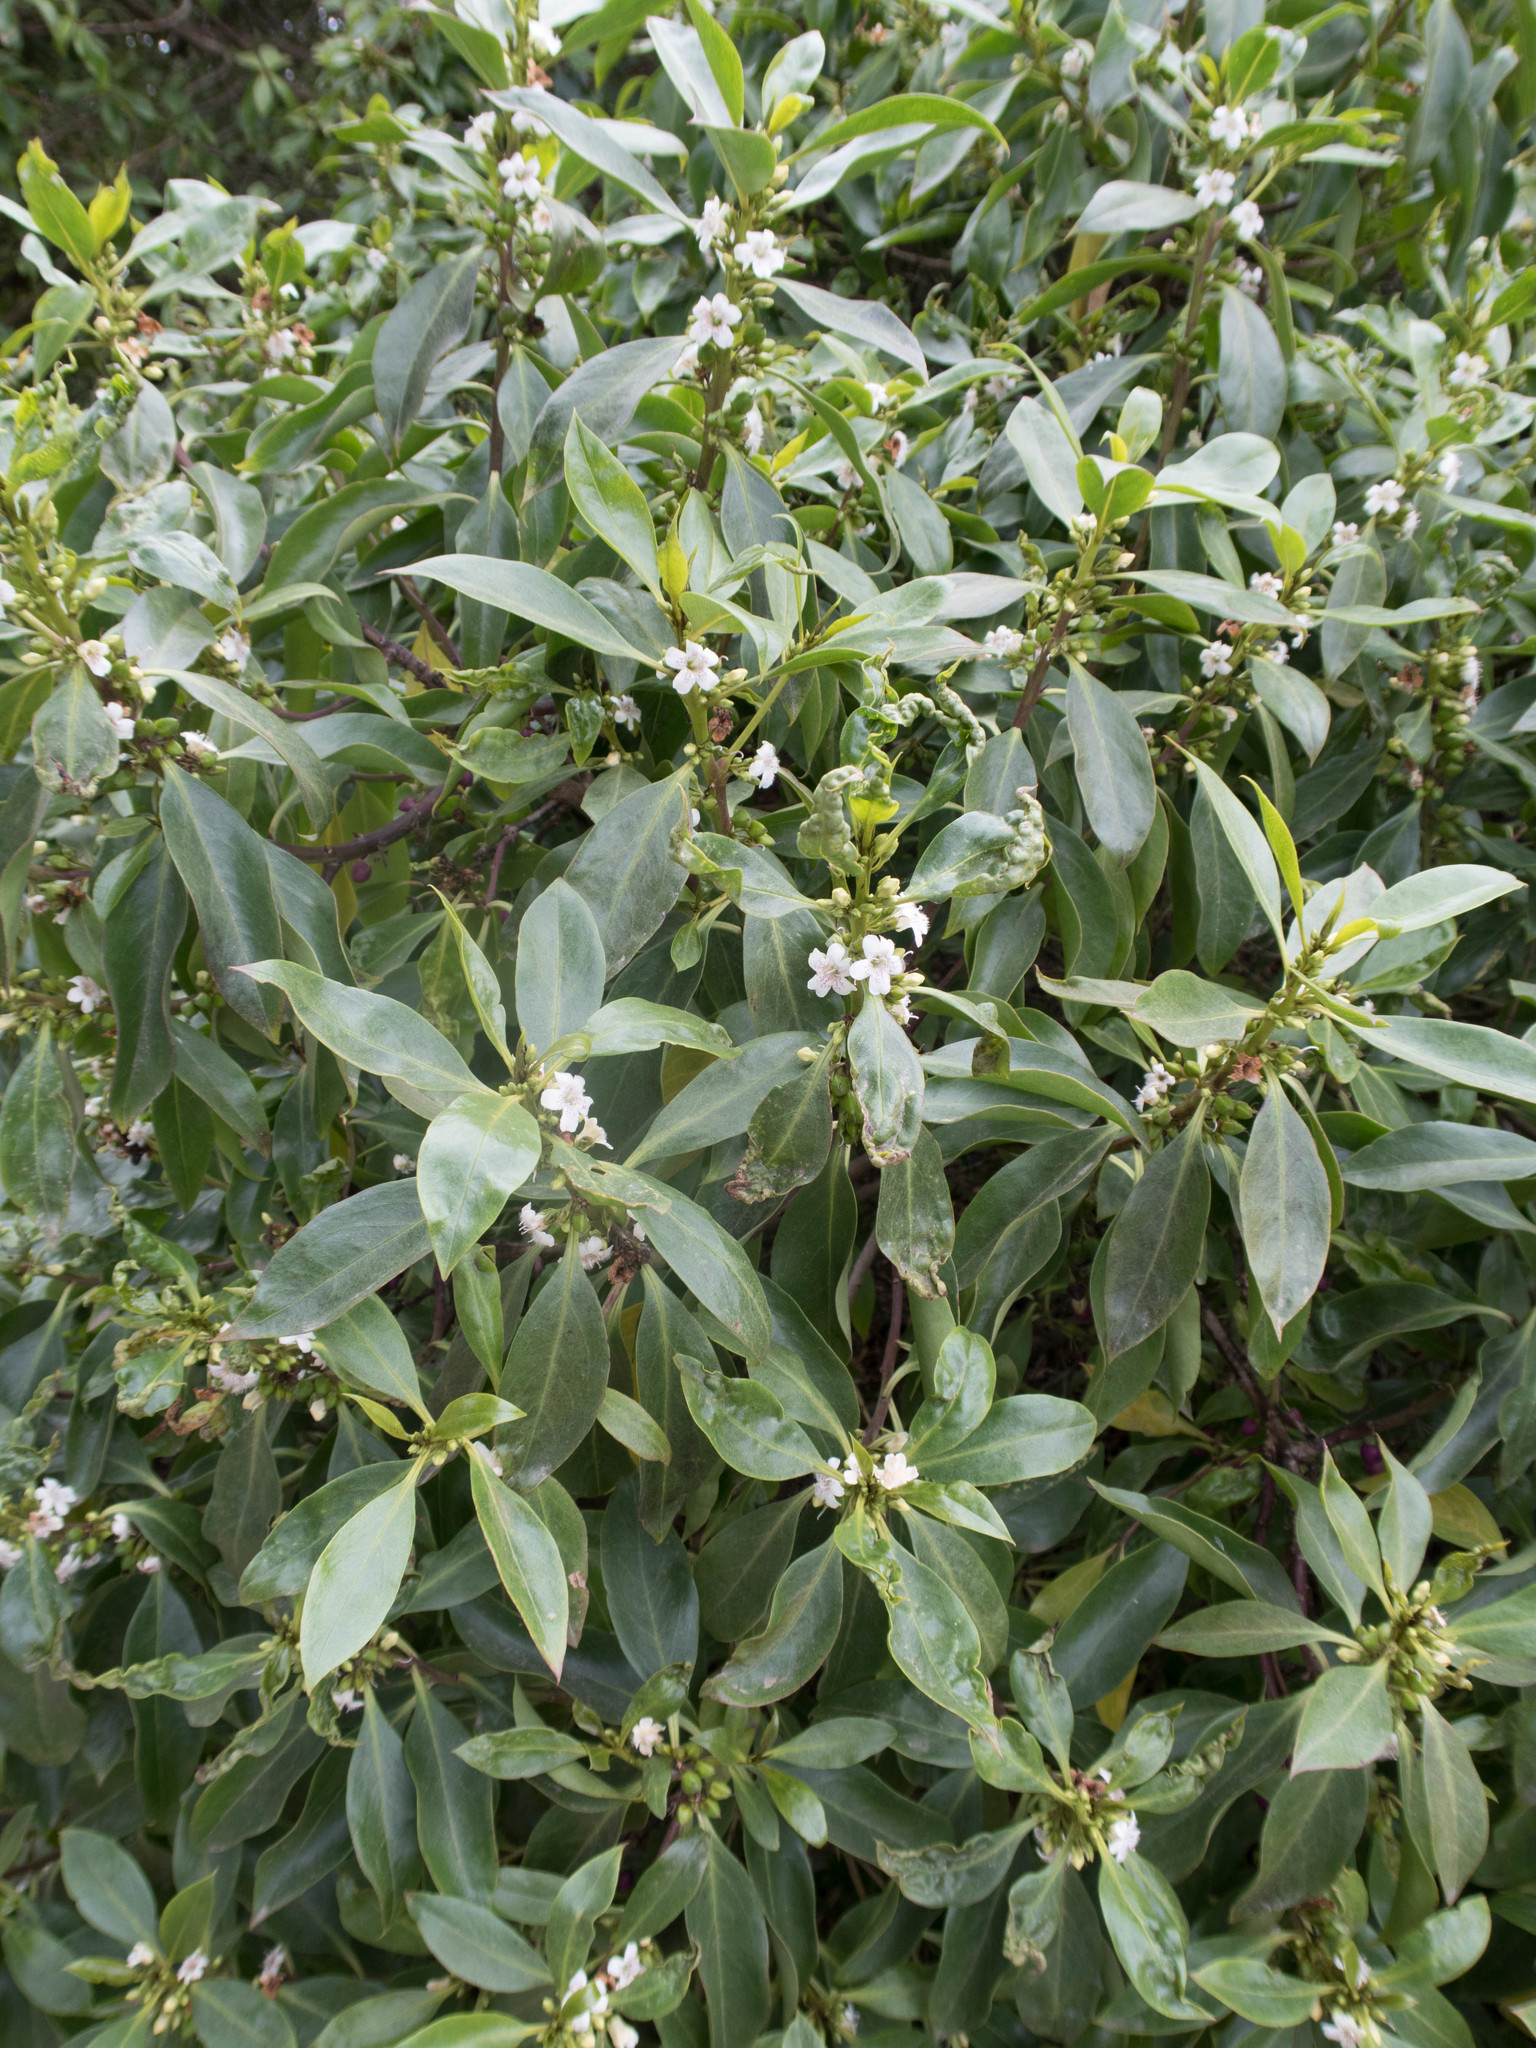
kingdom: Plantae
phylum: Tracheophyta
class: Magnoliopsida
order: Lamiales
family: Scrophulariaceae
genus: Myoporum
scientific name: Myoporum laetum
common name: Ngaio tree
